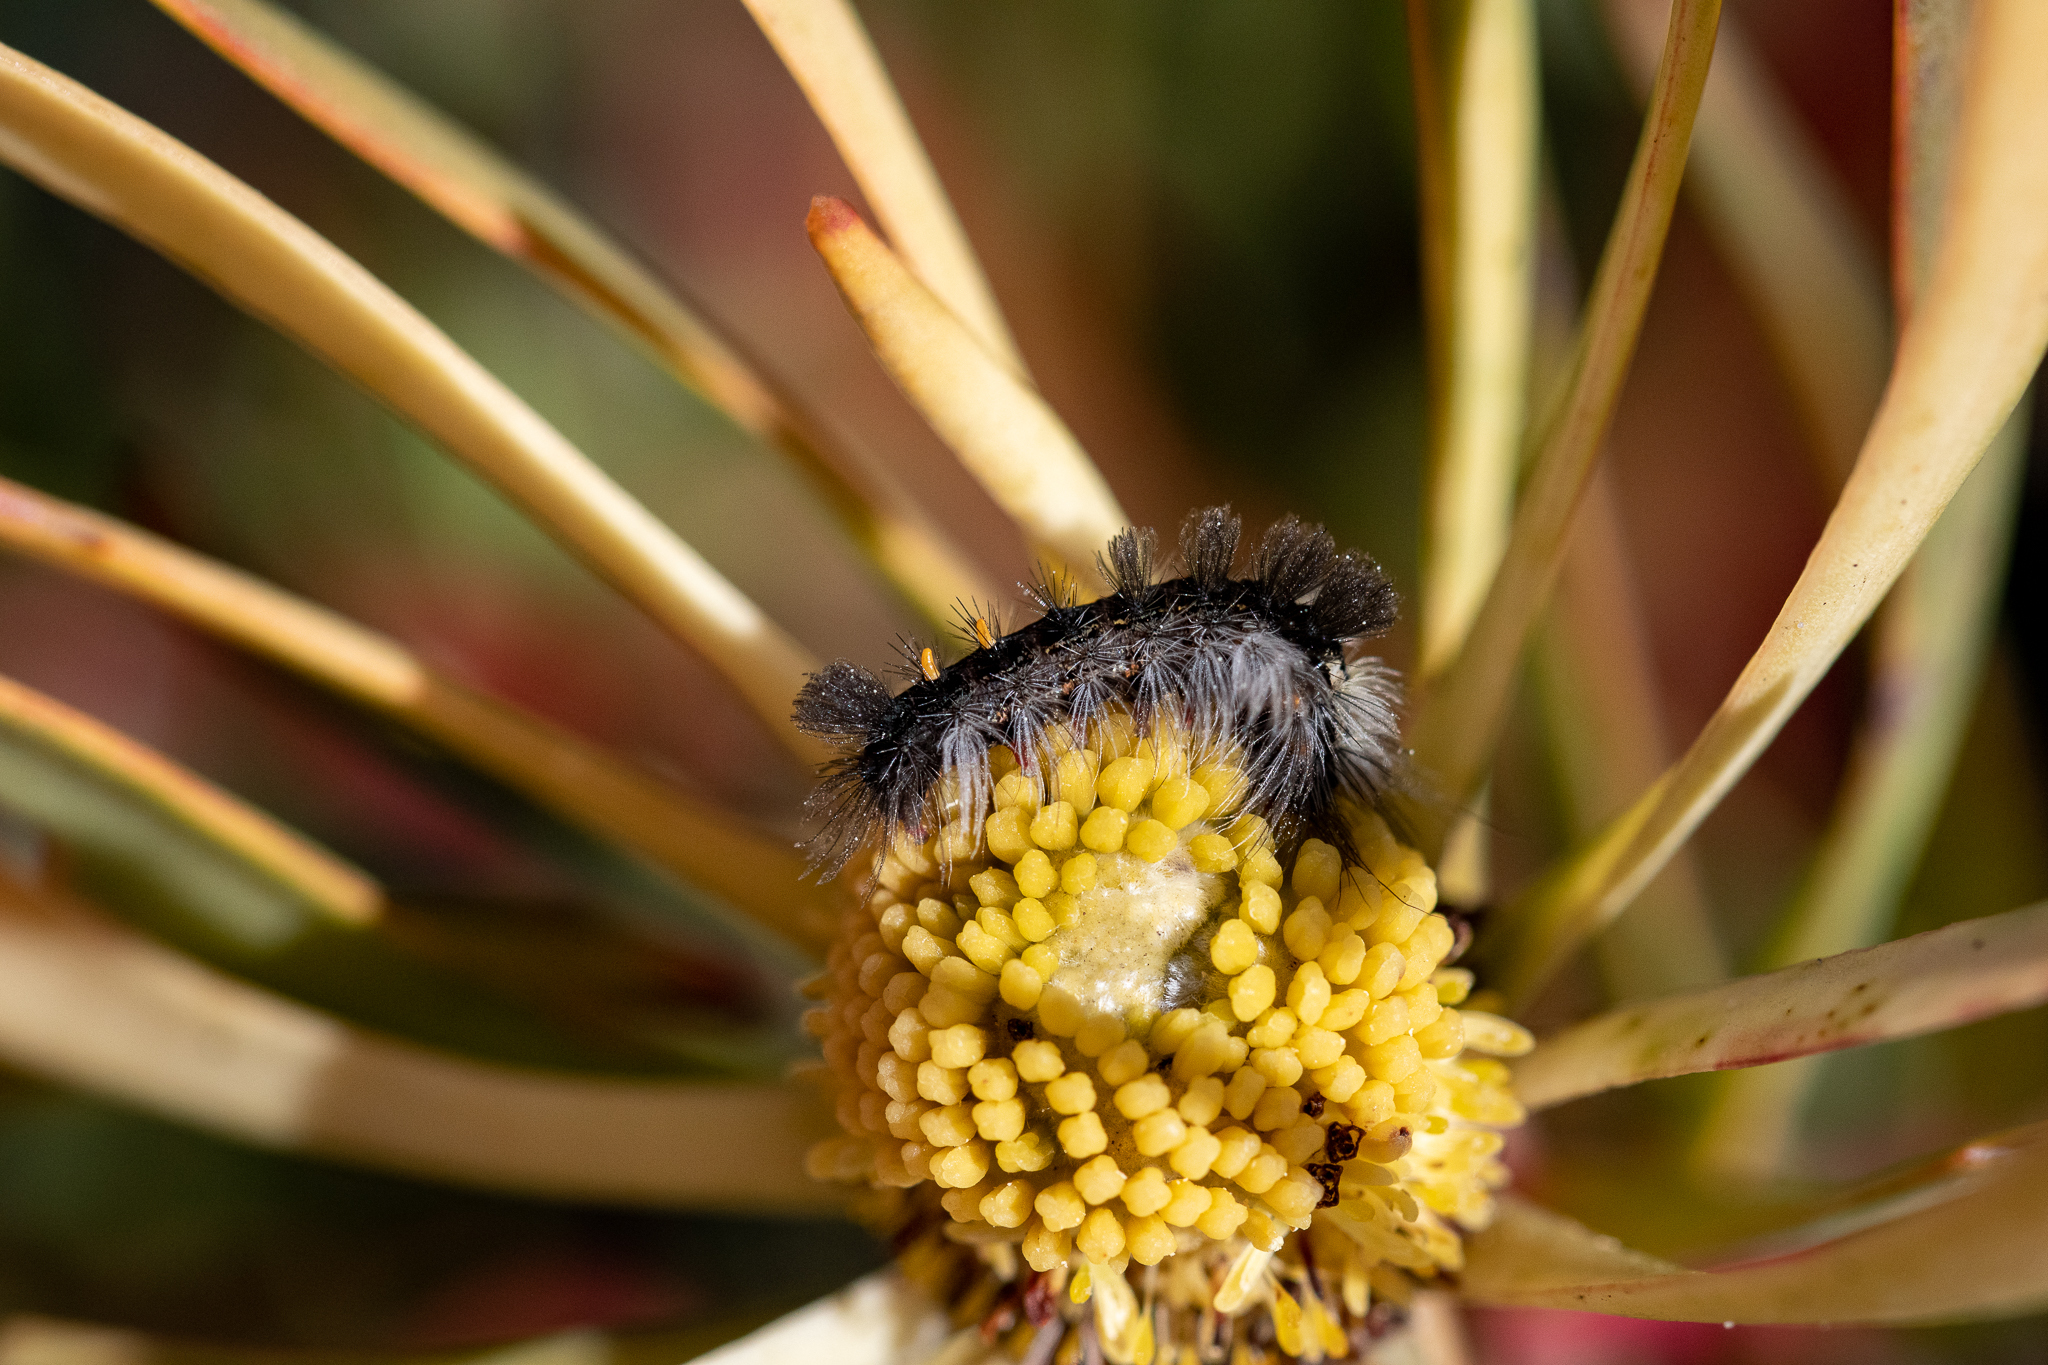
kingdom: Plantae
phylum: Tracheophyta
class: Magnoliopsida
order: Proteales
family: Proteaceae
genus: Leucadendron
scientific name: Leucadendron salignum
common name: Common sunshine conebush
